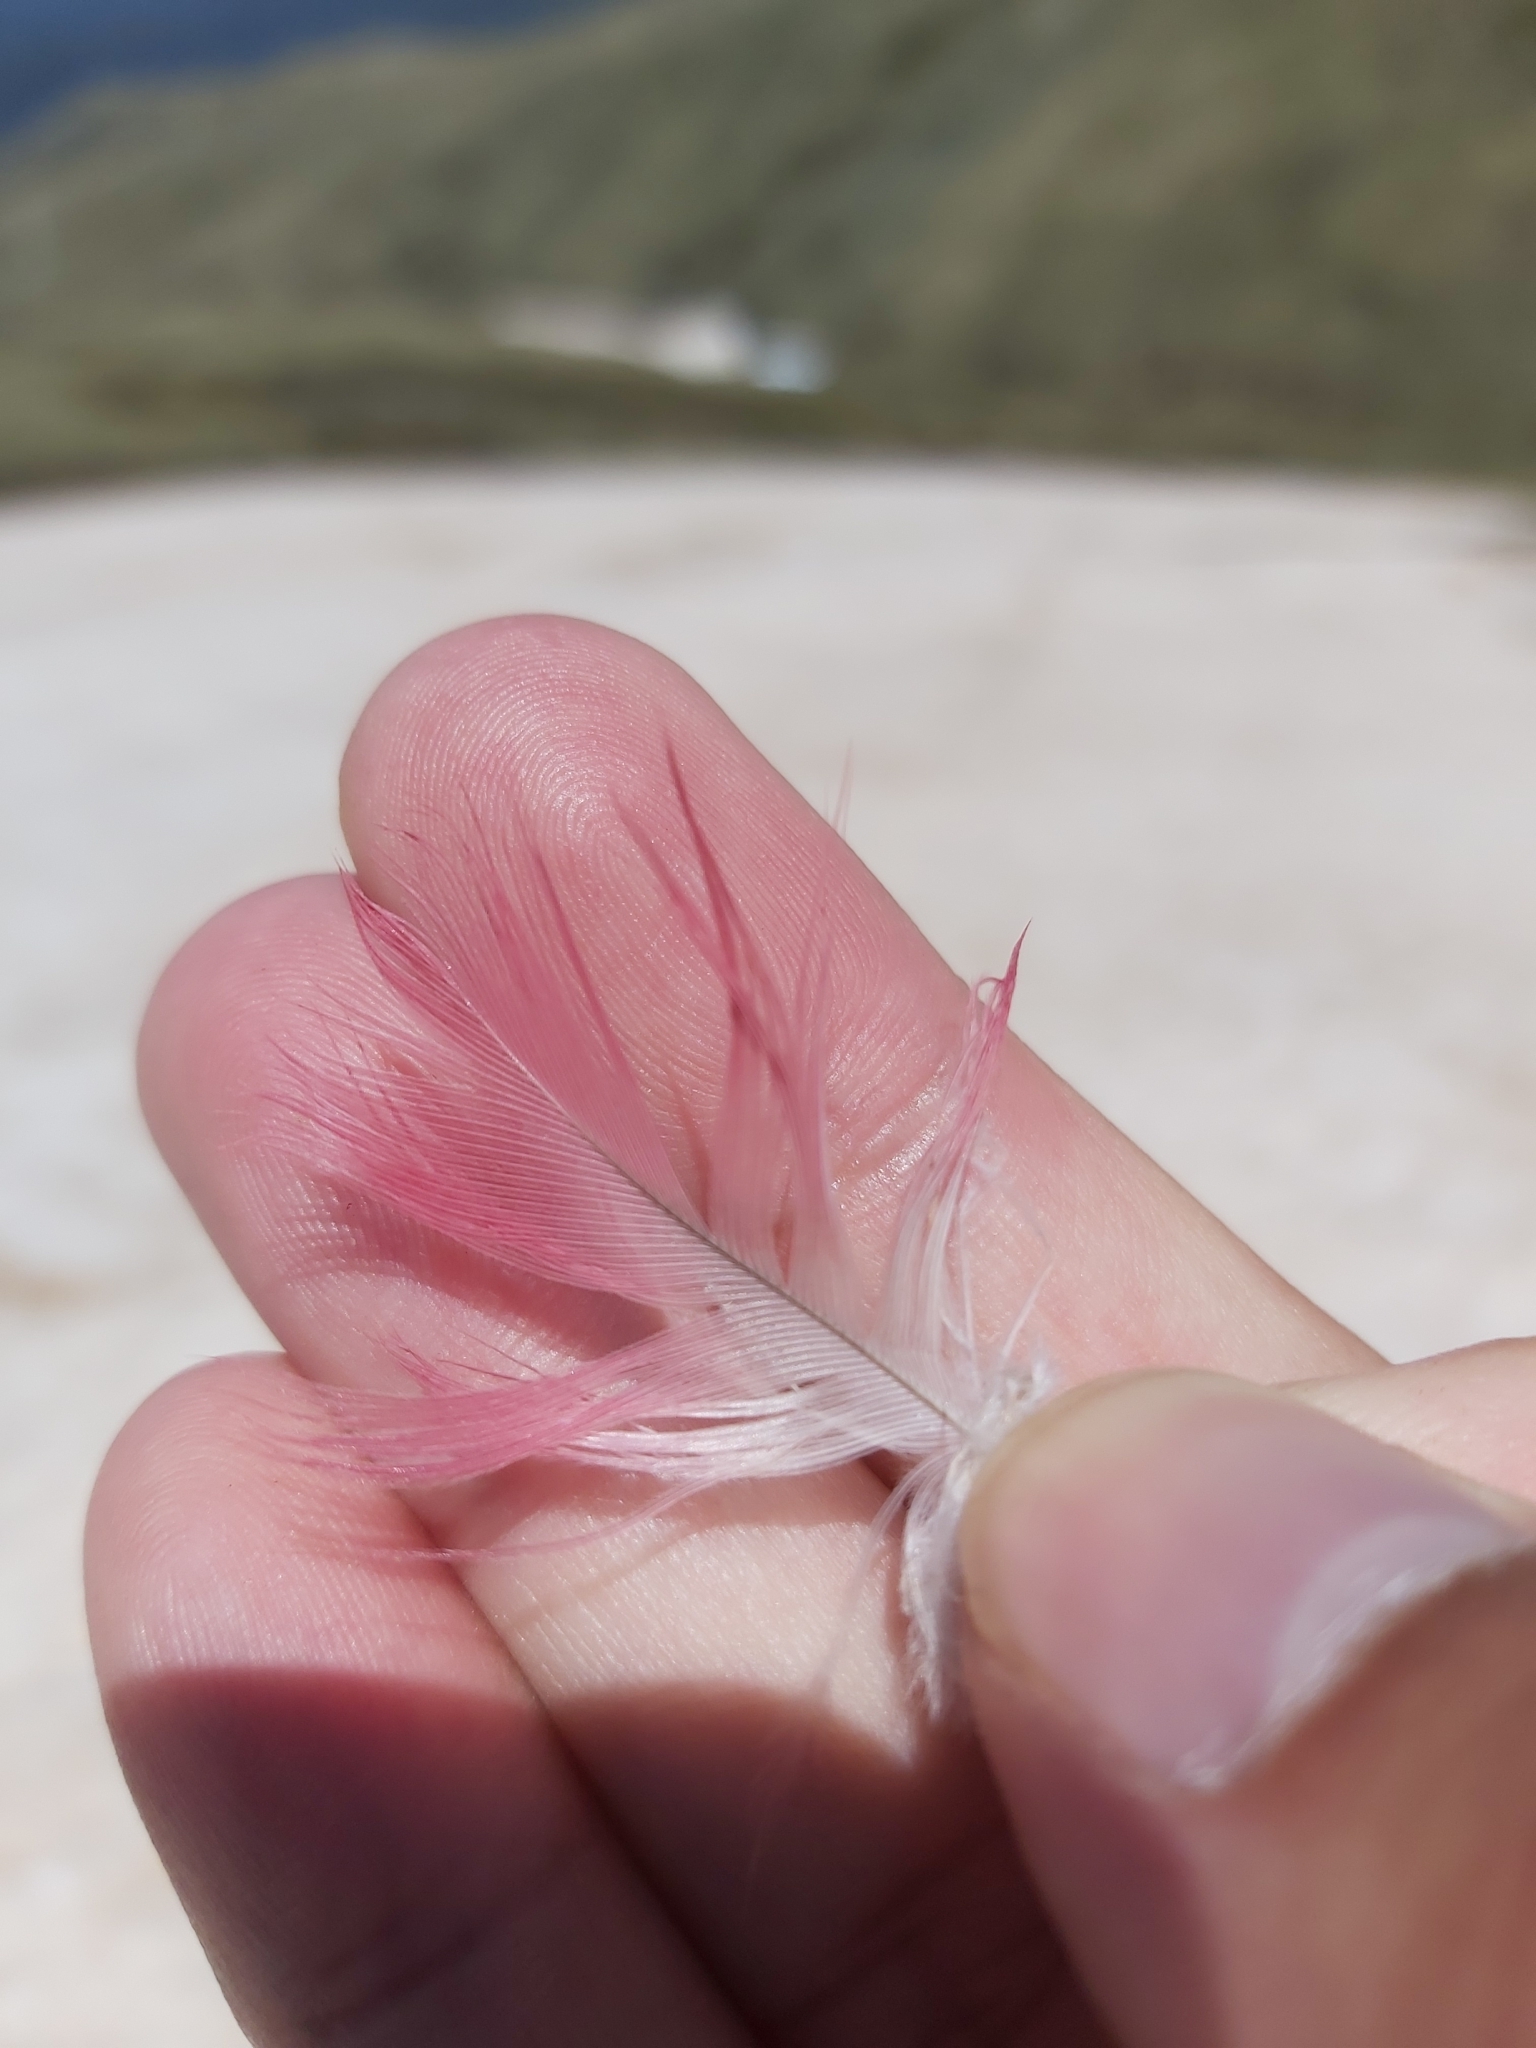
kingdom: Animalia
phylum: Chordata
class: Aves
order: Psittaciformes
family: Psittacidae
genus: Eolophus
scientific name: Eolophus roseicapilla
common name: Galah
